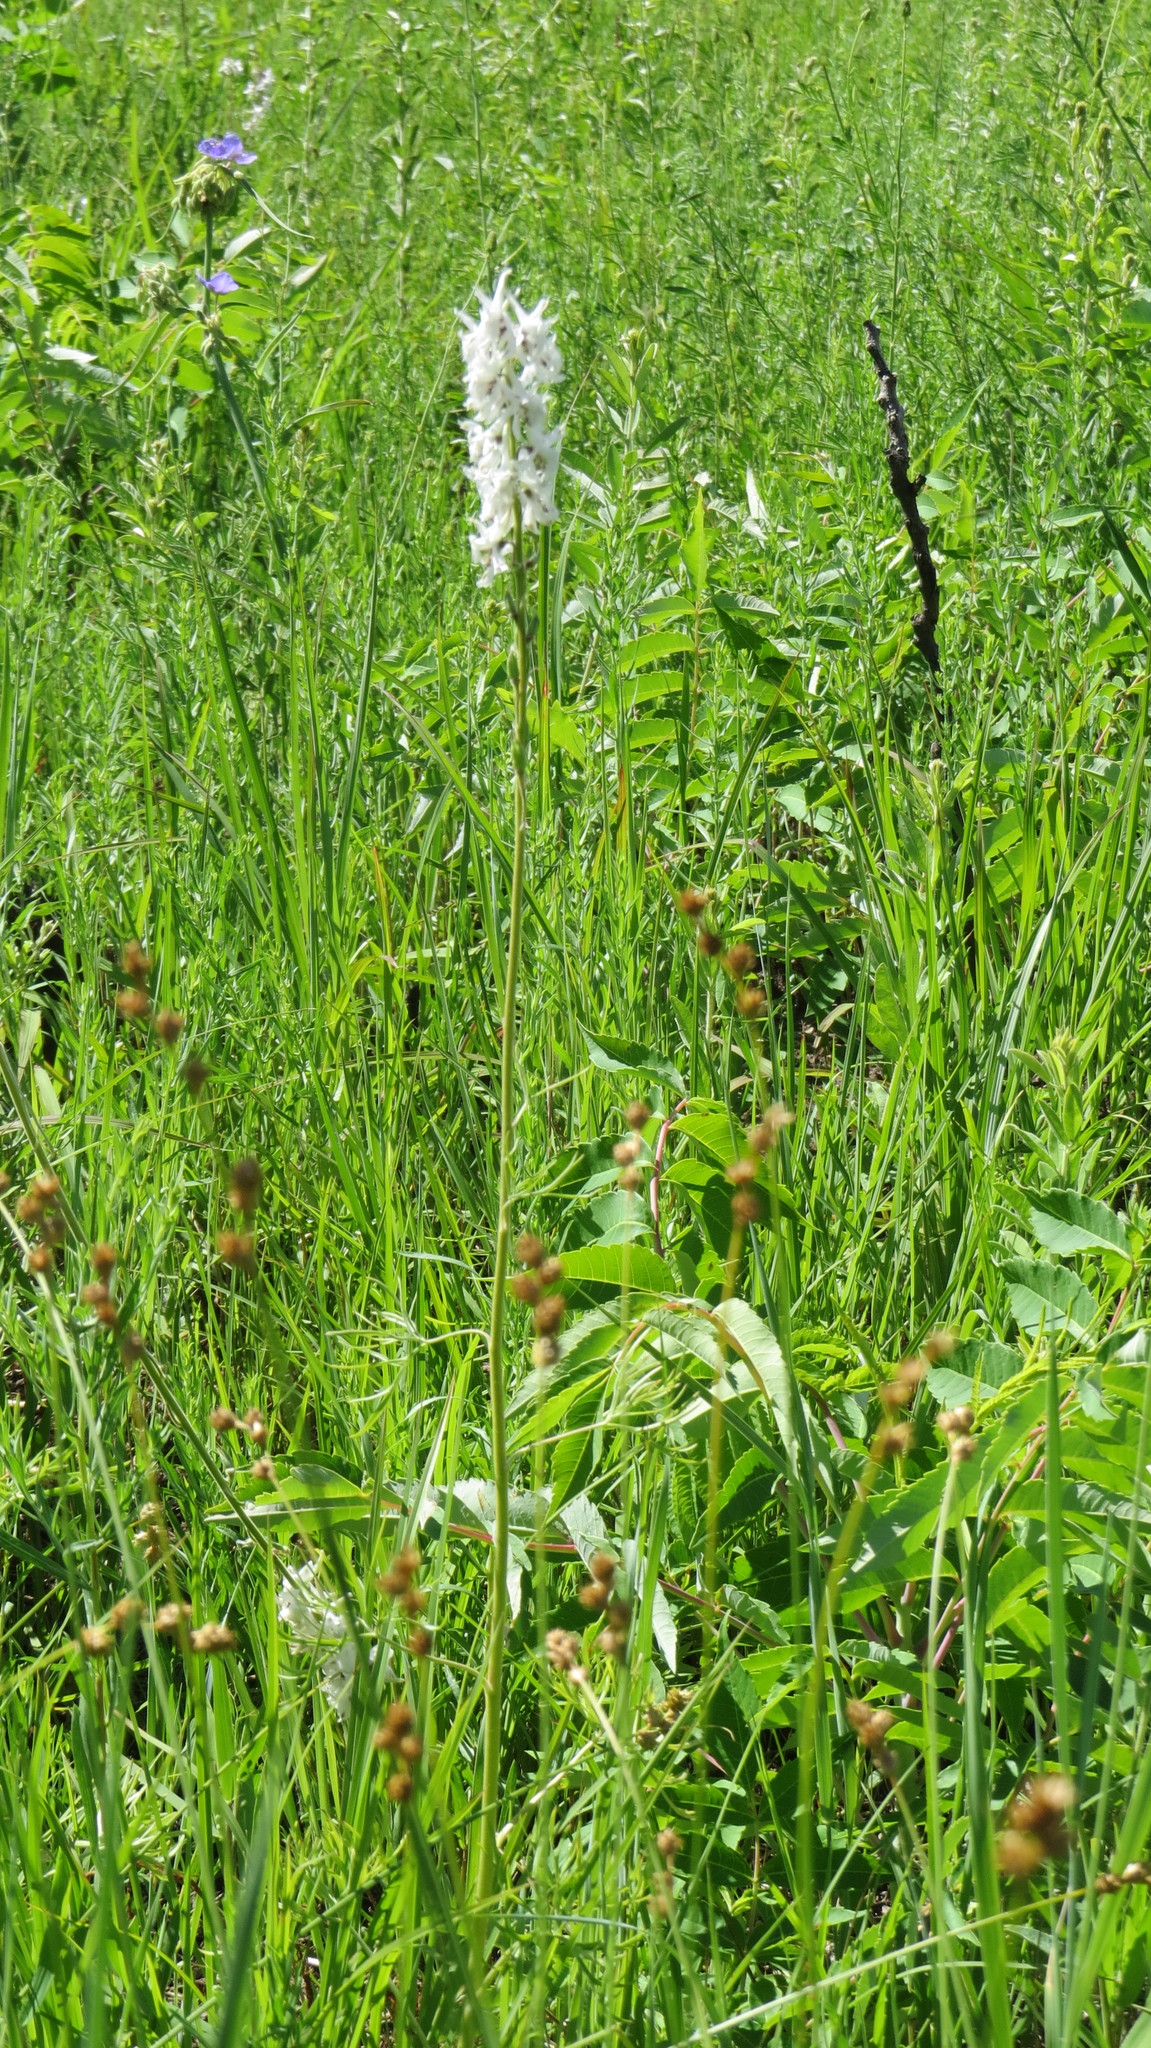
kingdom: Plantae
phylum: Tracheophyta
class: Magnoliopsida
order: Ranunculales
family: Ranunculaceae
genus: Delphinium
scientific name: Delphinium carolinianum
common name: Carolina larkspur
